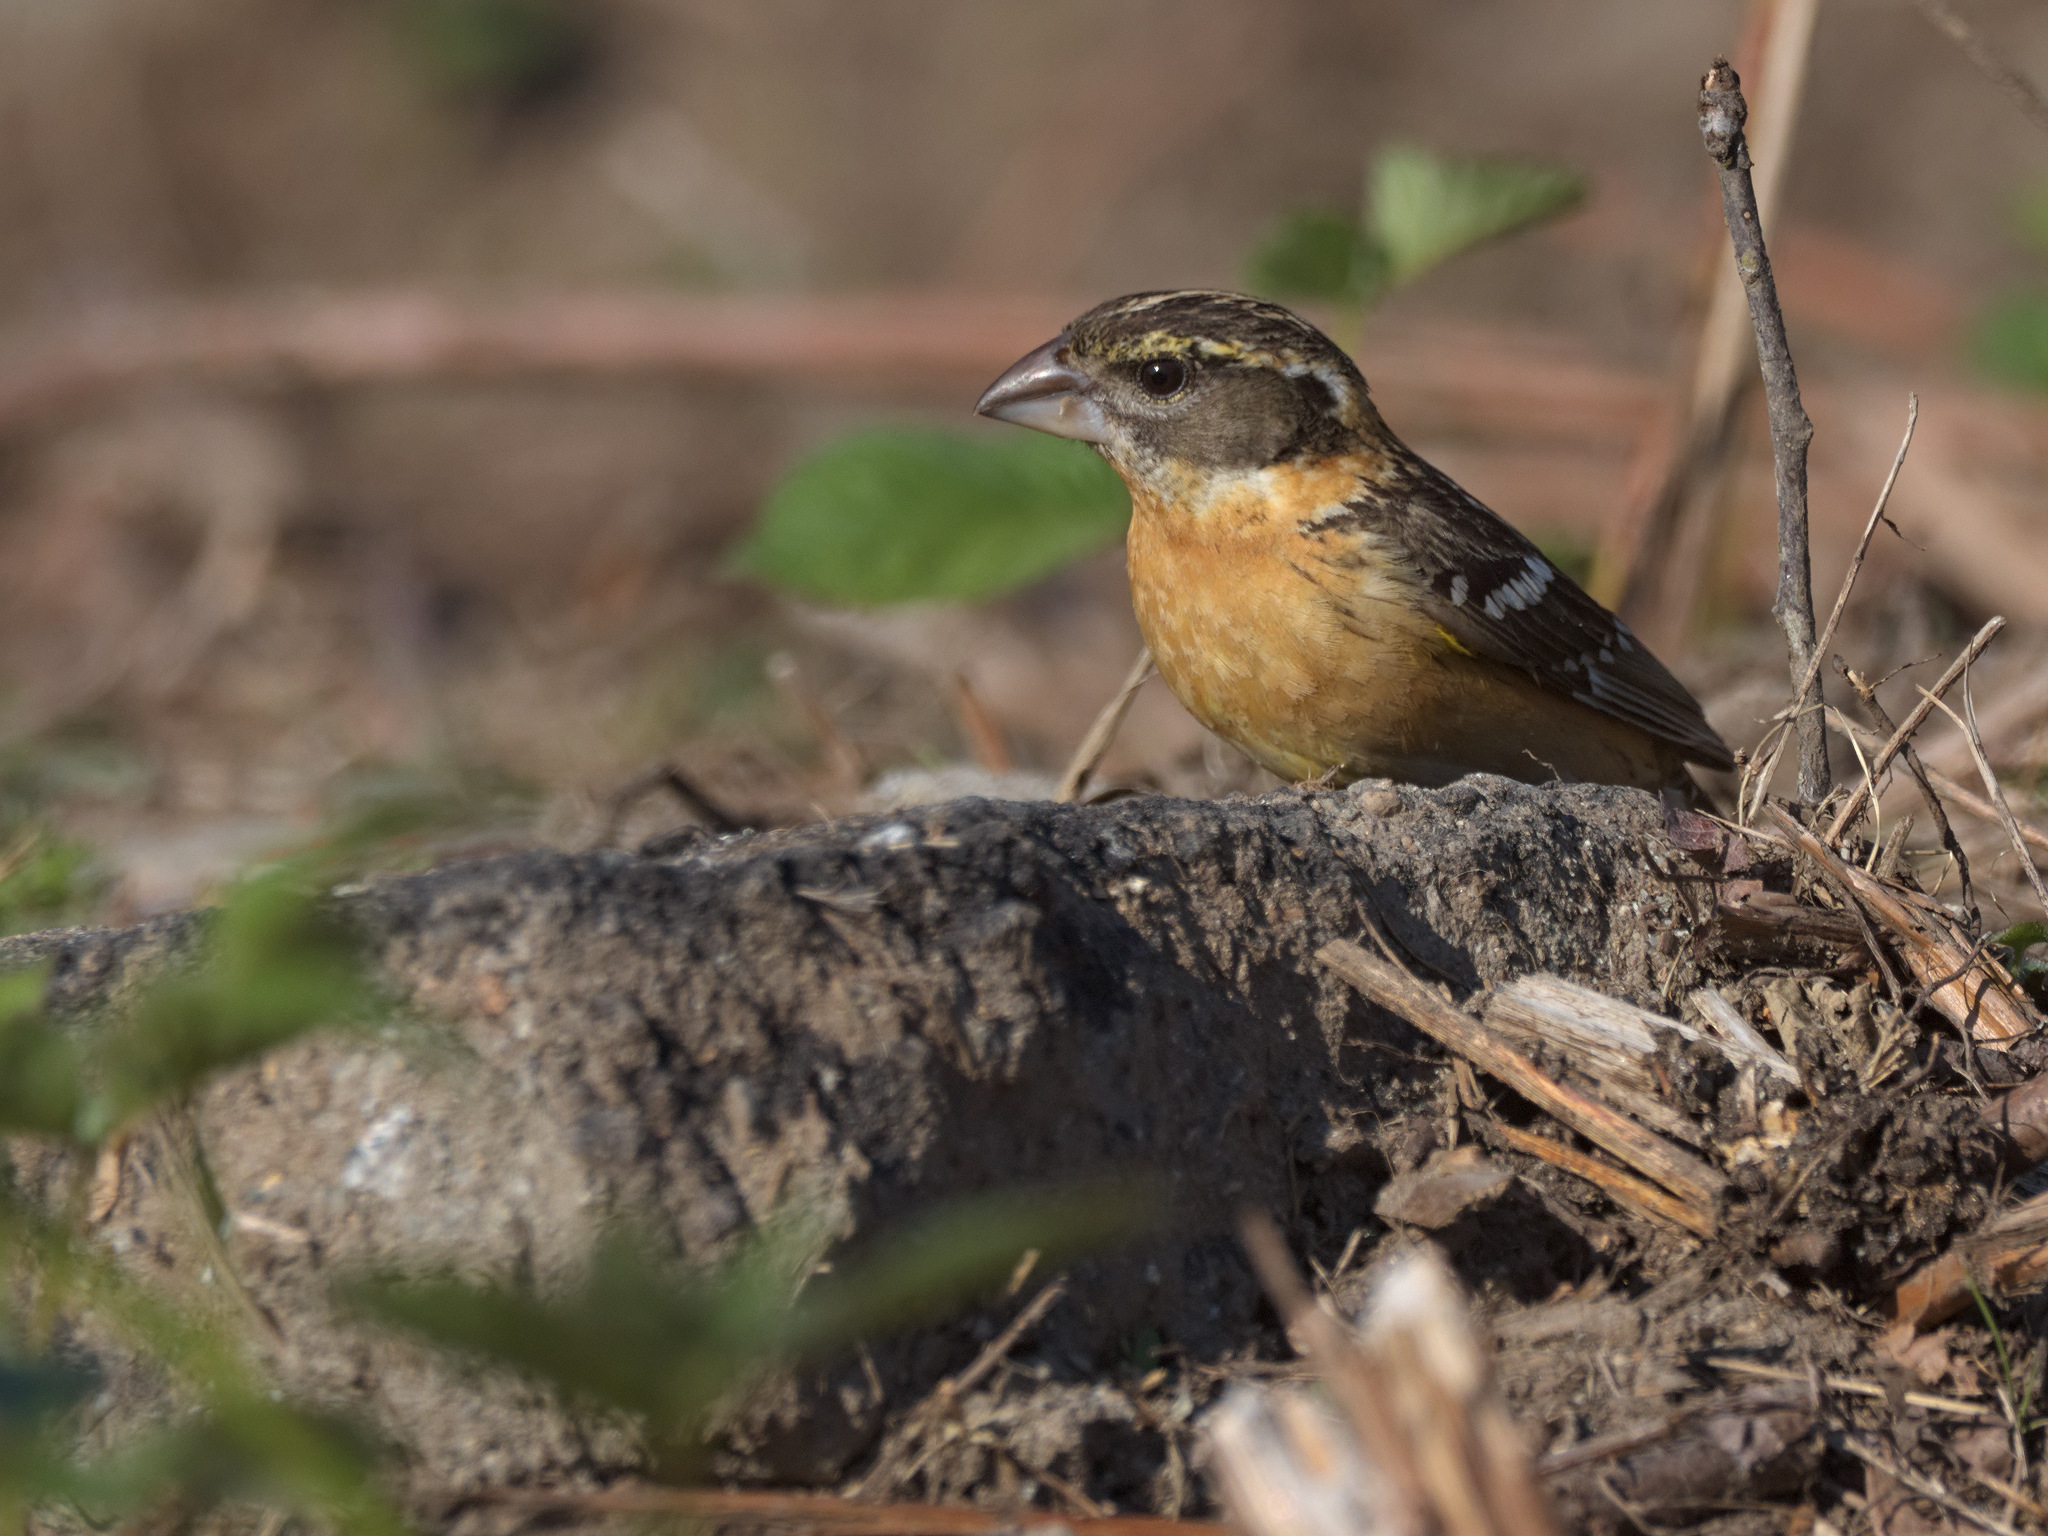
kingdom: Animalia
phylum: Chordata
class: Aves
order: Passeriformes
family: Cardinalidae
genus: Pheucticus
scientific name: Pheucticus melanocephalus
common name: Black-headed grosbeak
